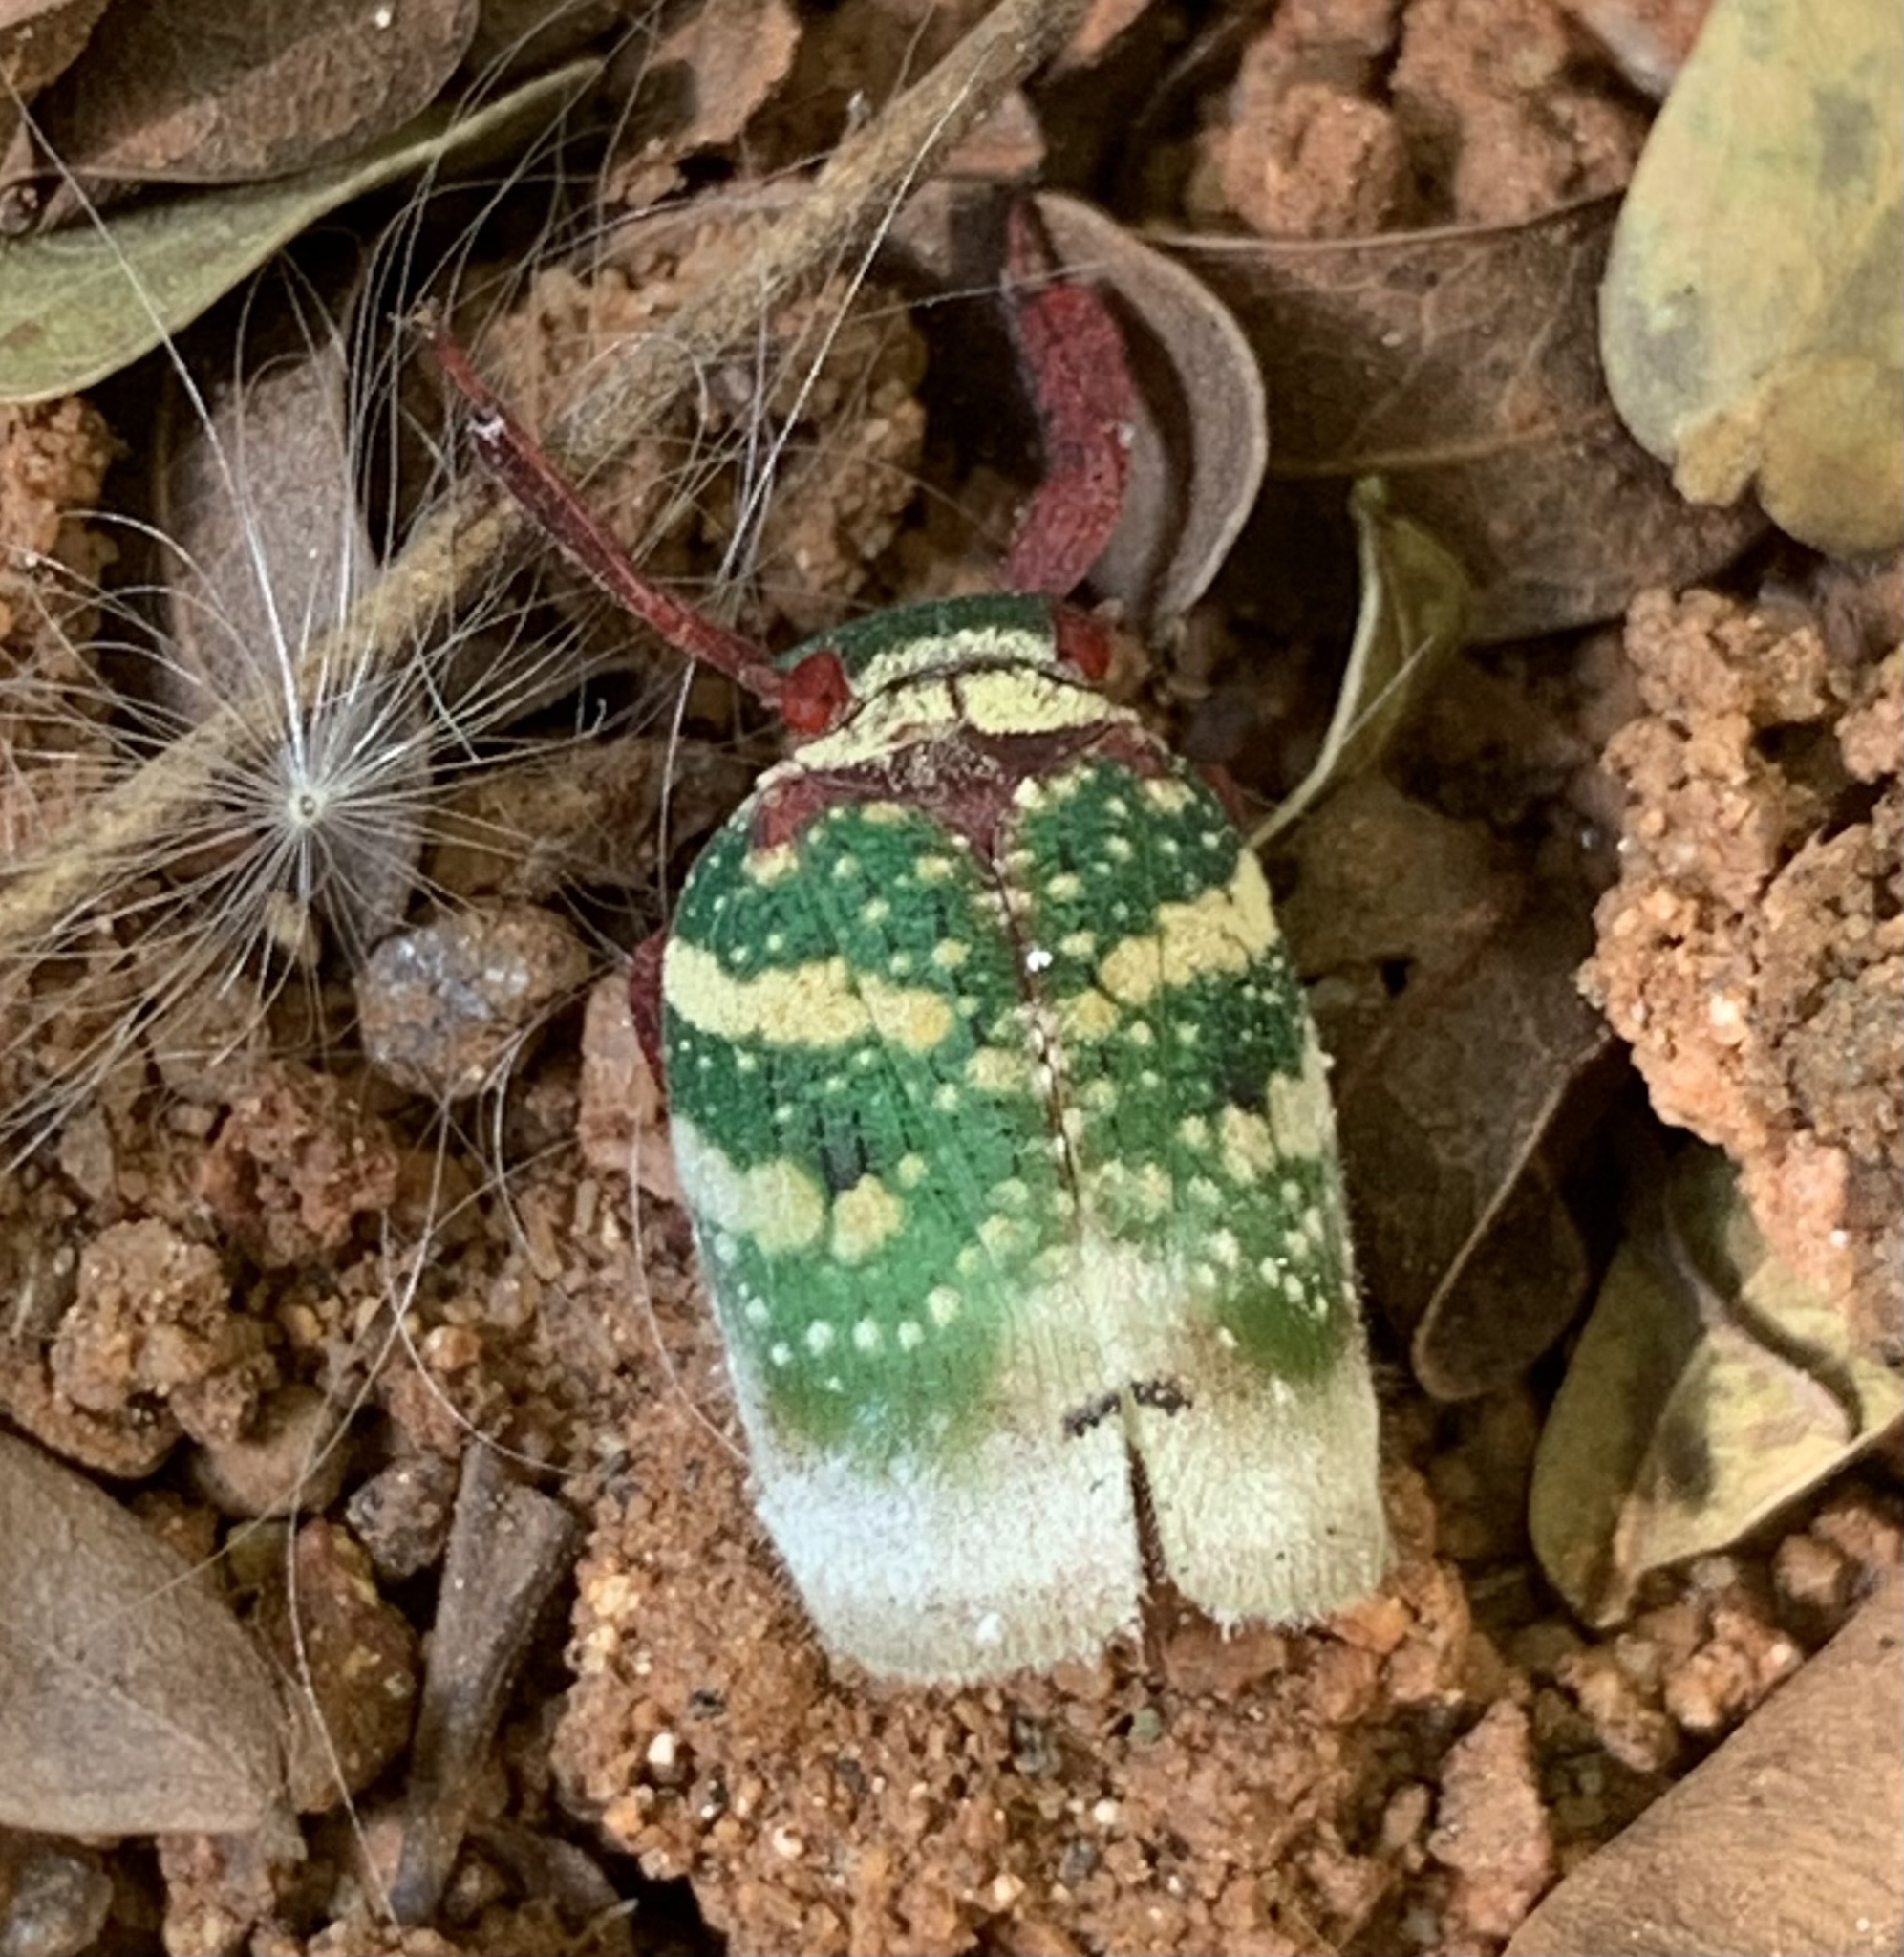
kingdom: Animalia
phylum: Arthropoda
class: Insecta
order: Hemiptera
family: Eurybrachidae
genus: Eurybrachys
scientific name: Eurybrachys tomentosa
